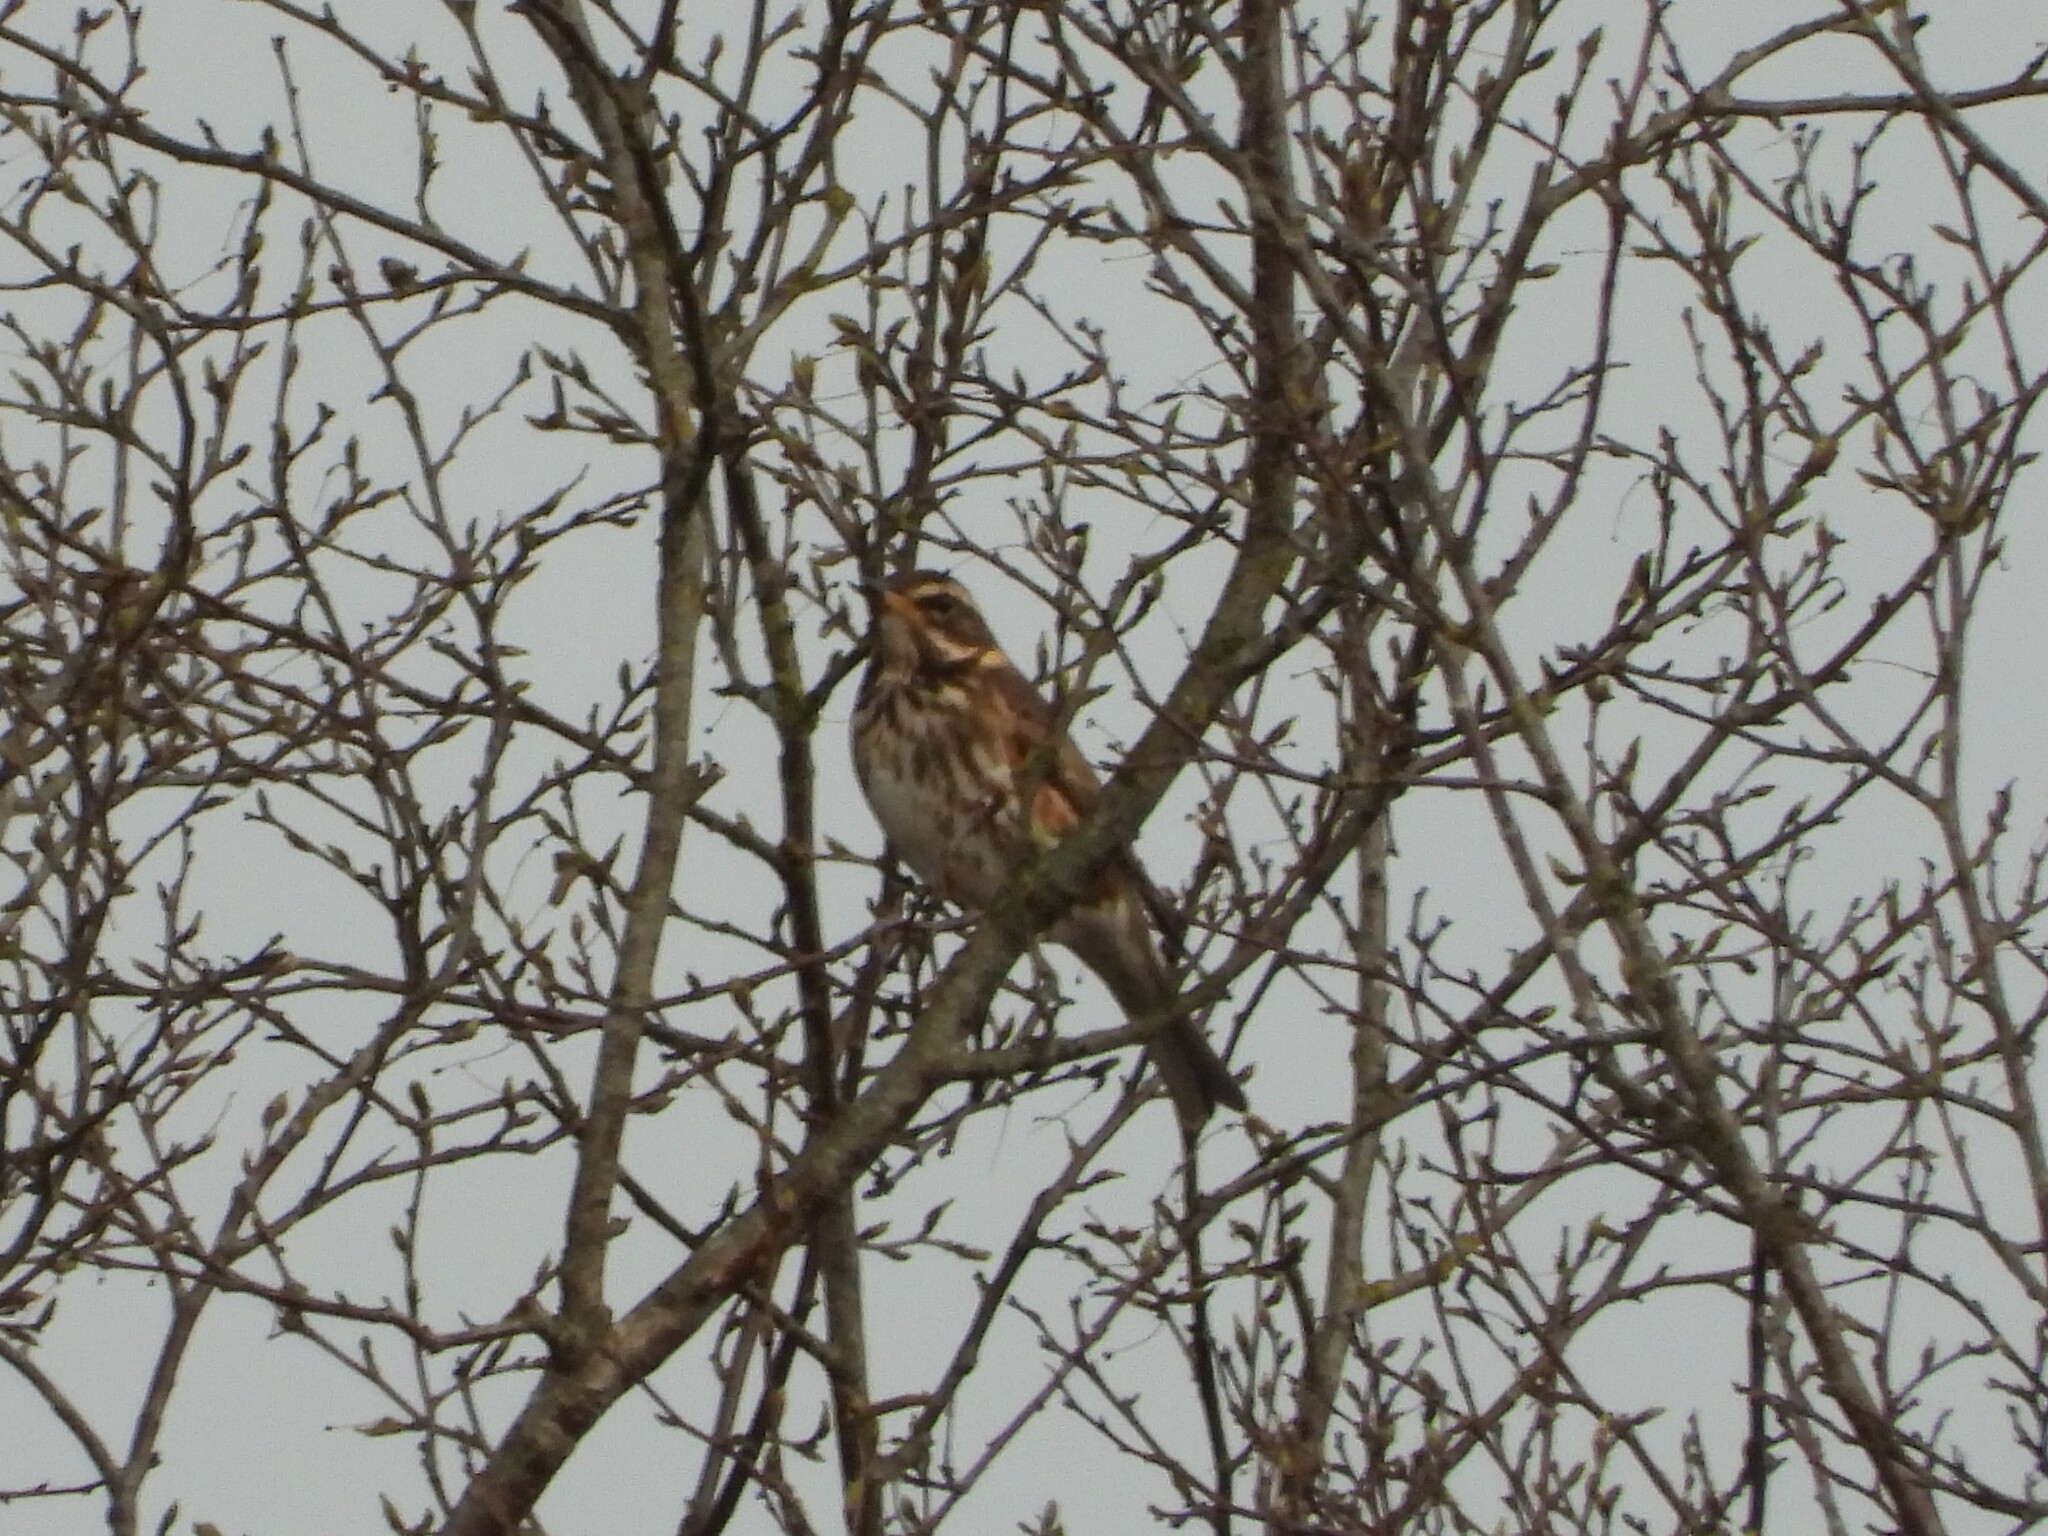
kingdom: Animalia
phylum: Chordata
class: Aves
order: Passeriformes
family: Turdidae
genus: Turdus
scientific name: Turdus iliacus
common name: Redwing
